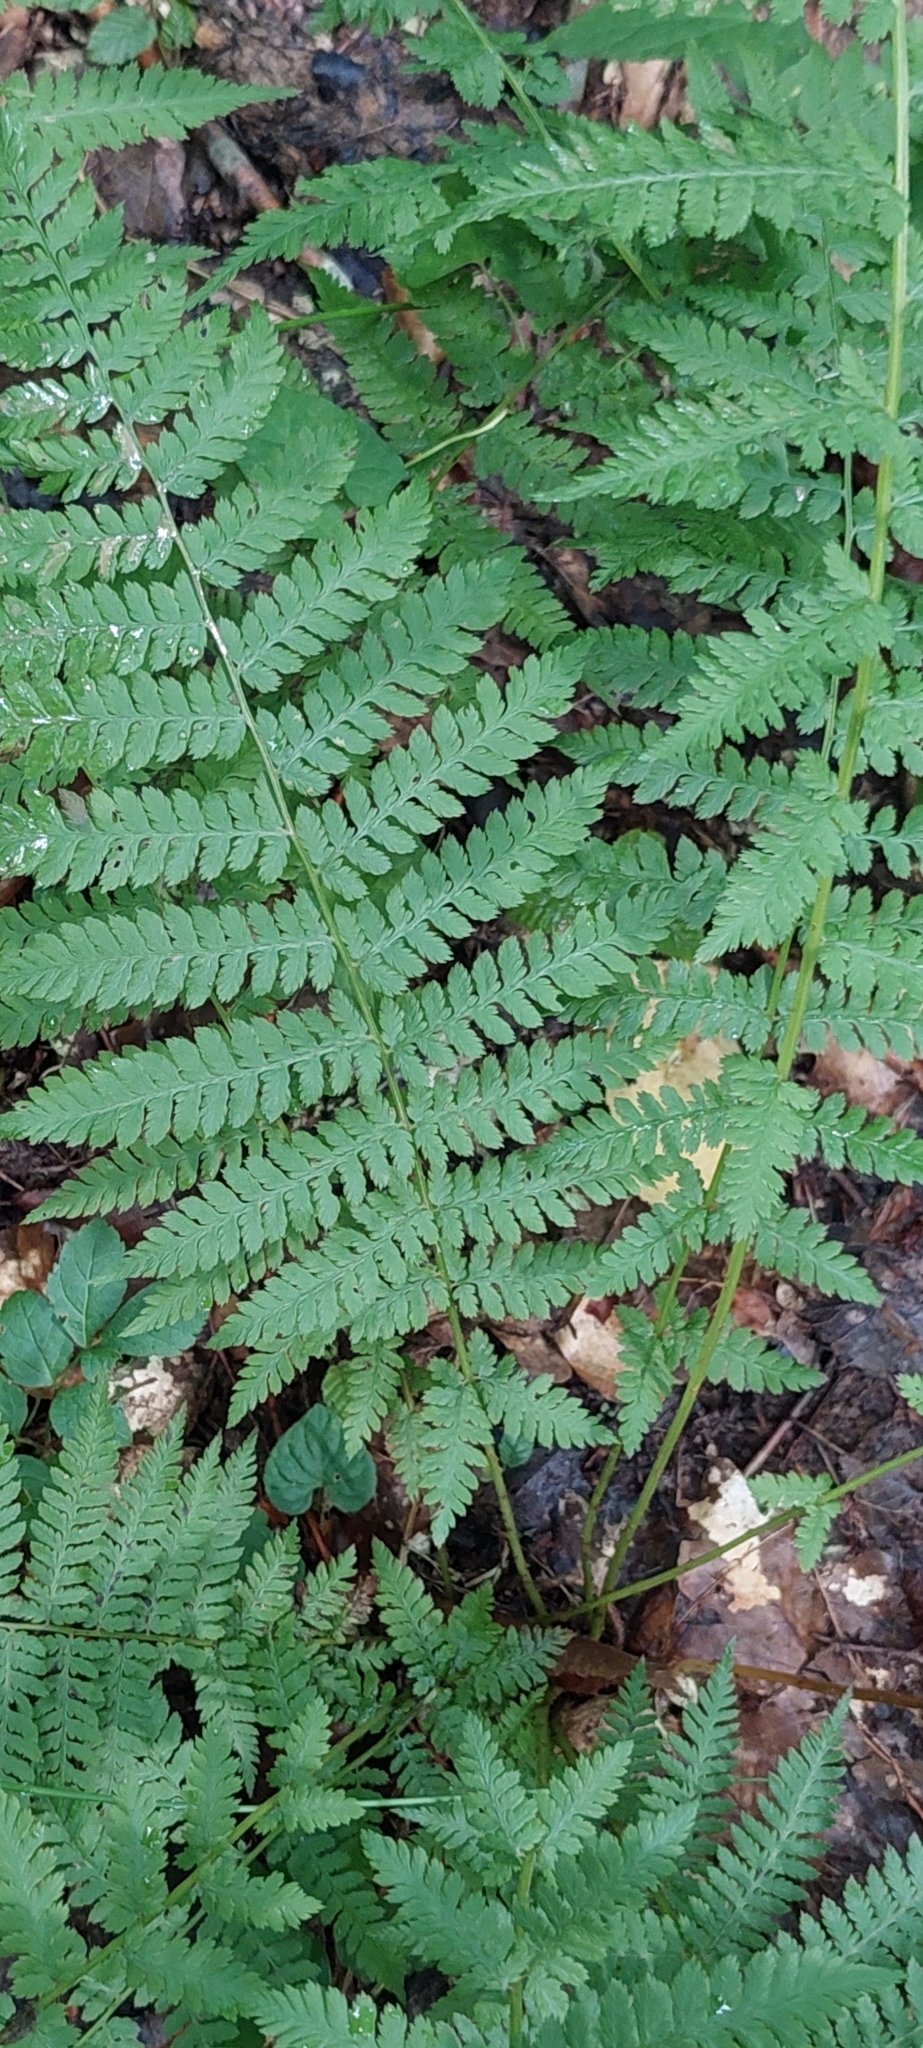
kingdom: Plantae
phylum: Tracheophyta
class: Polypodiopsida
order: Polypodiales
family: Athyriaceae
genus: Athyrium
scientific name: Athyrium filix-femina
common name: Lady fern
